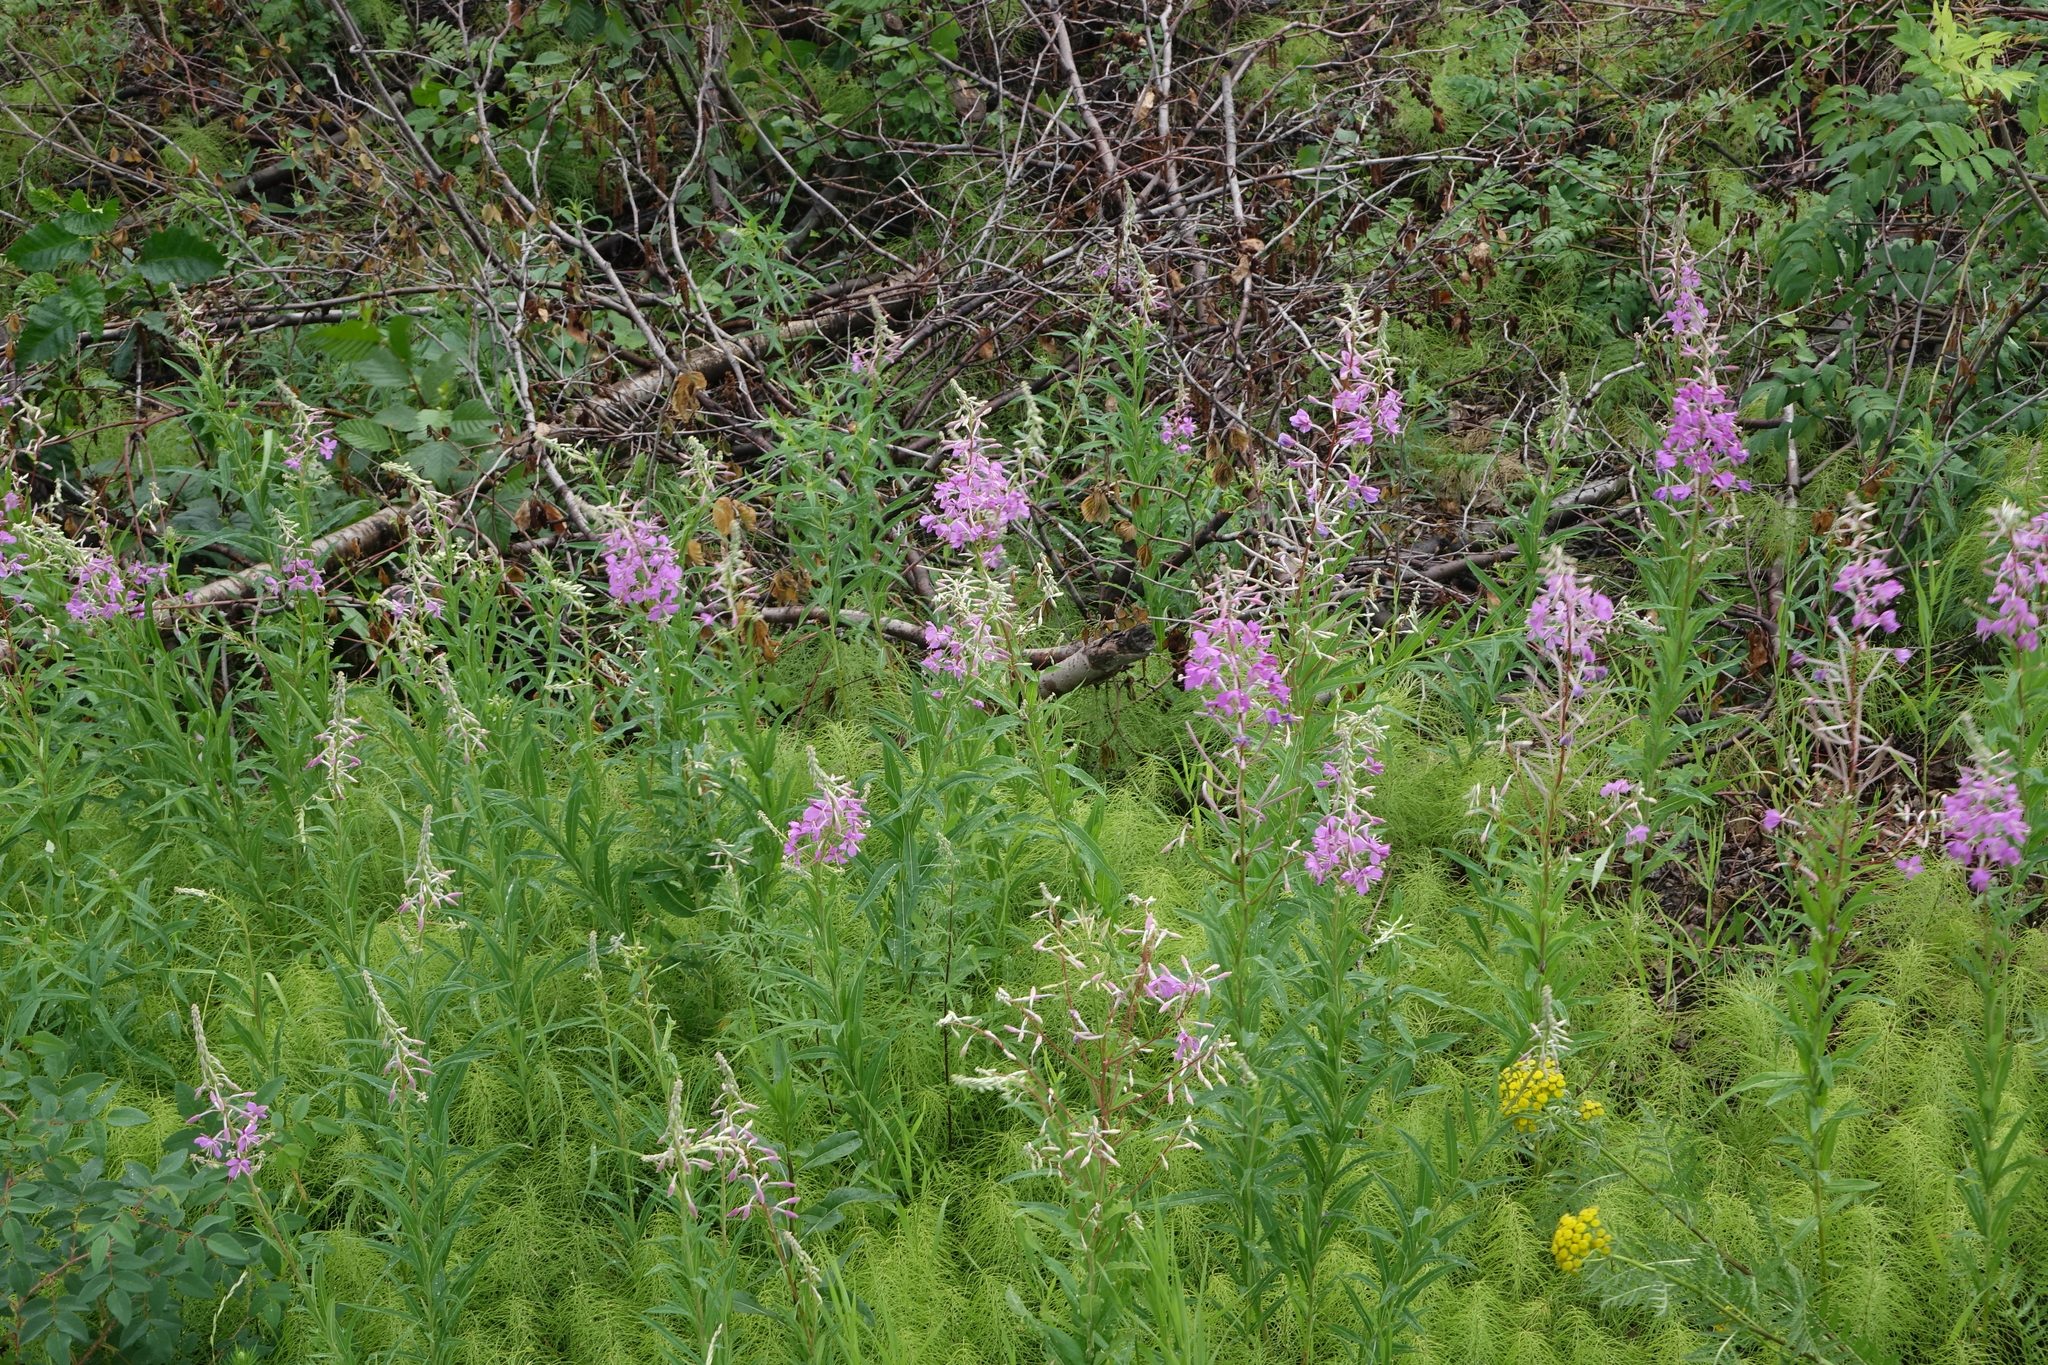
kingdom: Plantae
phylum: Tracheophyta
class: Magnoliopsida
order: Myrtales
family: Onagraceae
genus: Chamaenerion
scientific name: Chamaenerion angustifolium
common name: Fireweed
